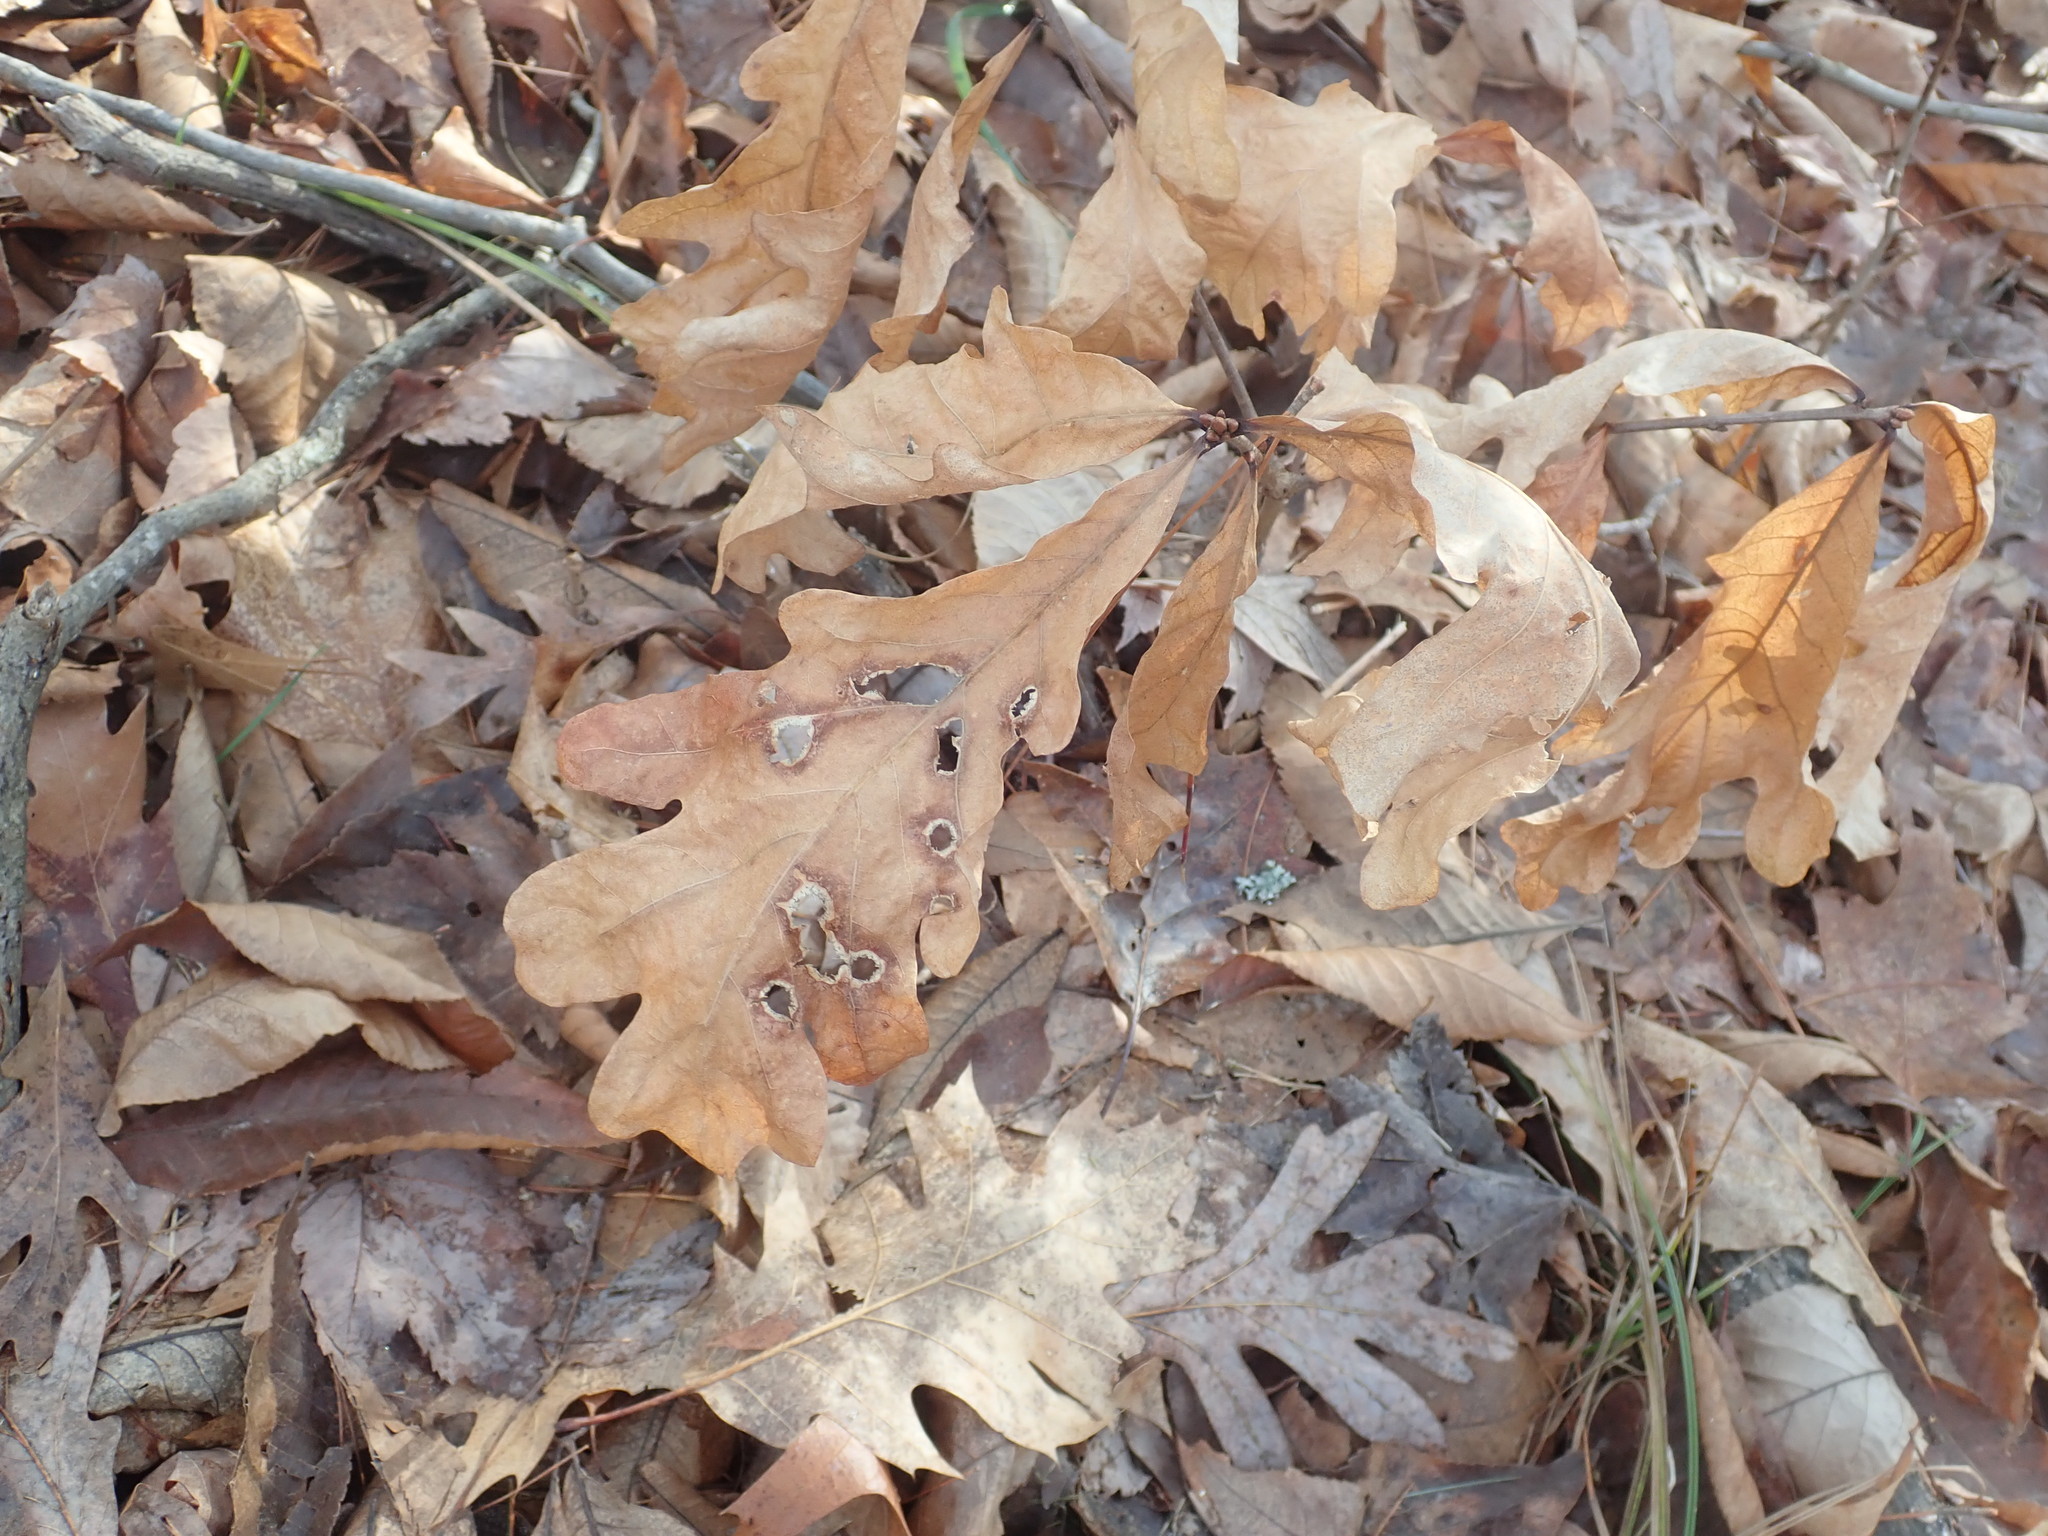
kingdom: Plantae
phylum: Tracheophyta
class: Magnoliopsida
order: Fagales
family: Fagaceae
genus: Quercus
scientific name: Quercus alba
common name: White oak
